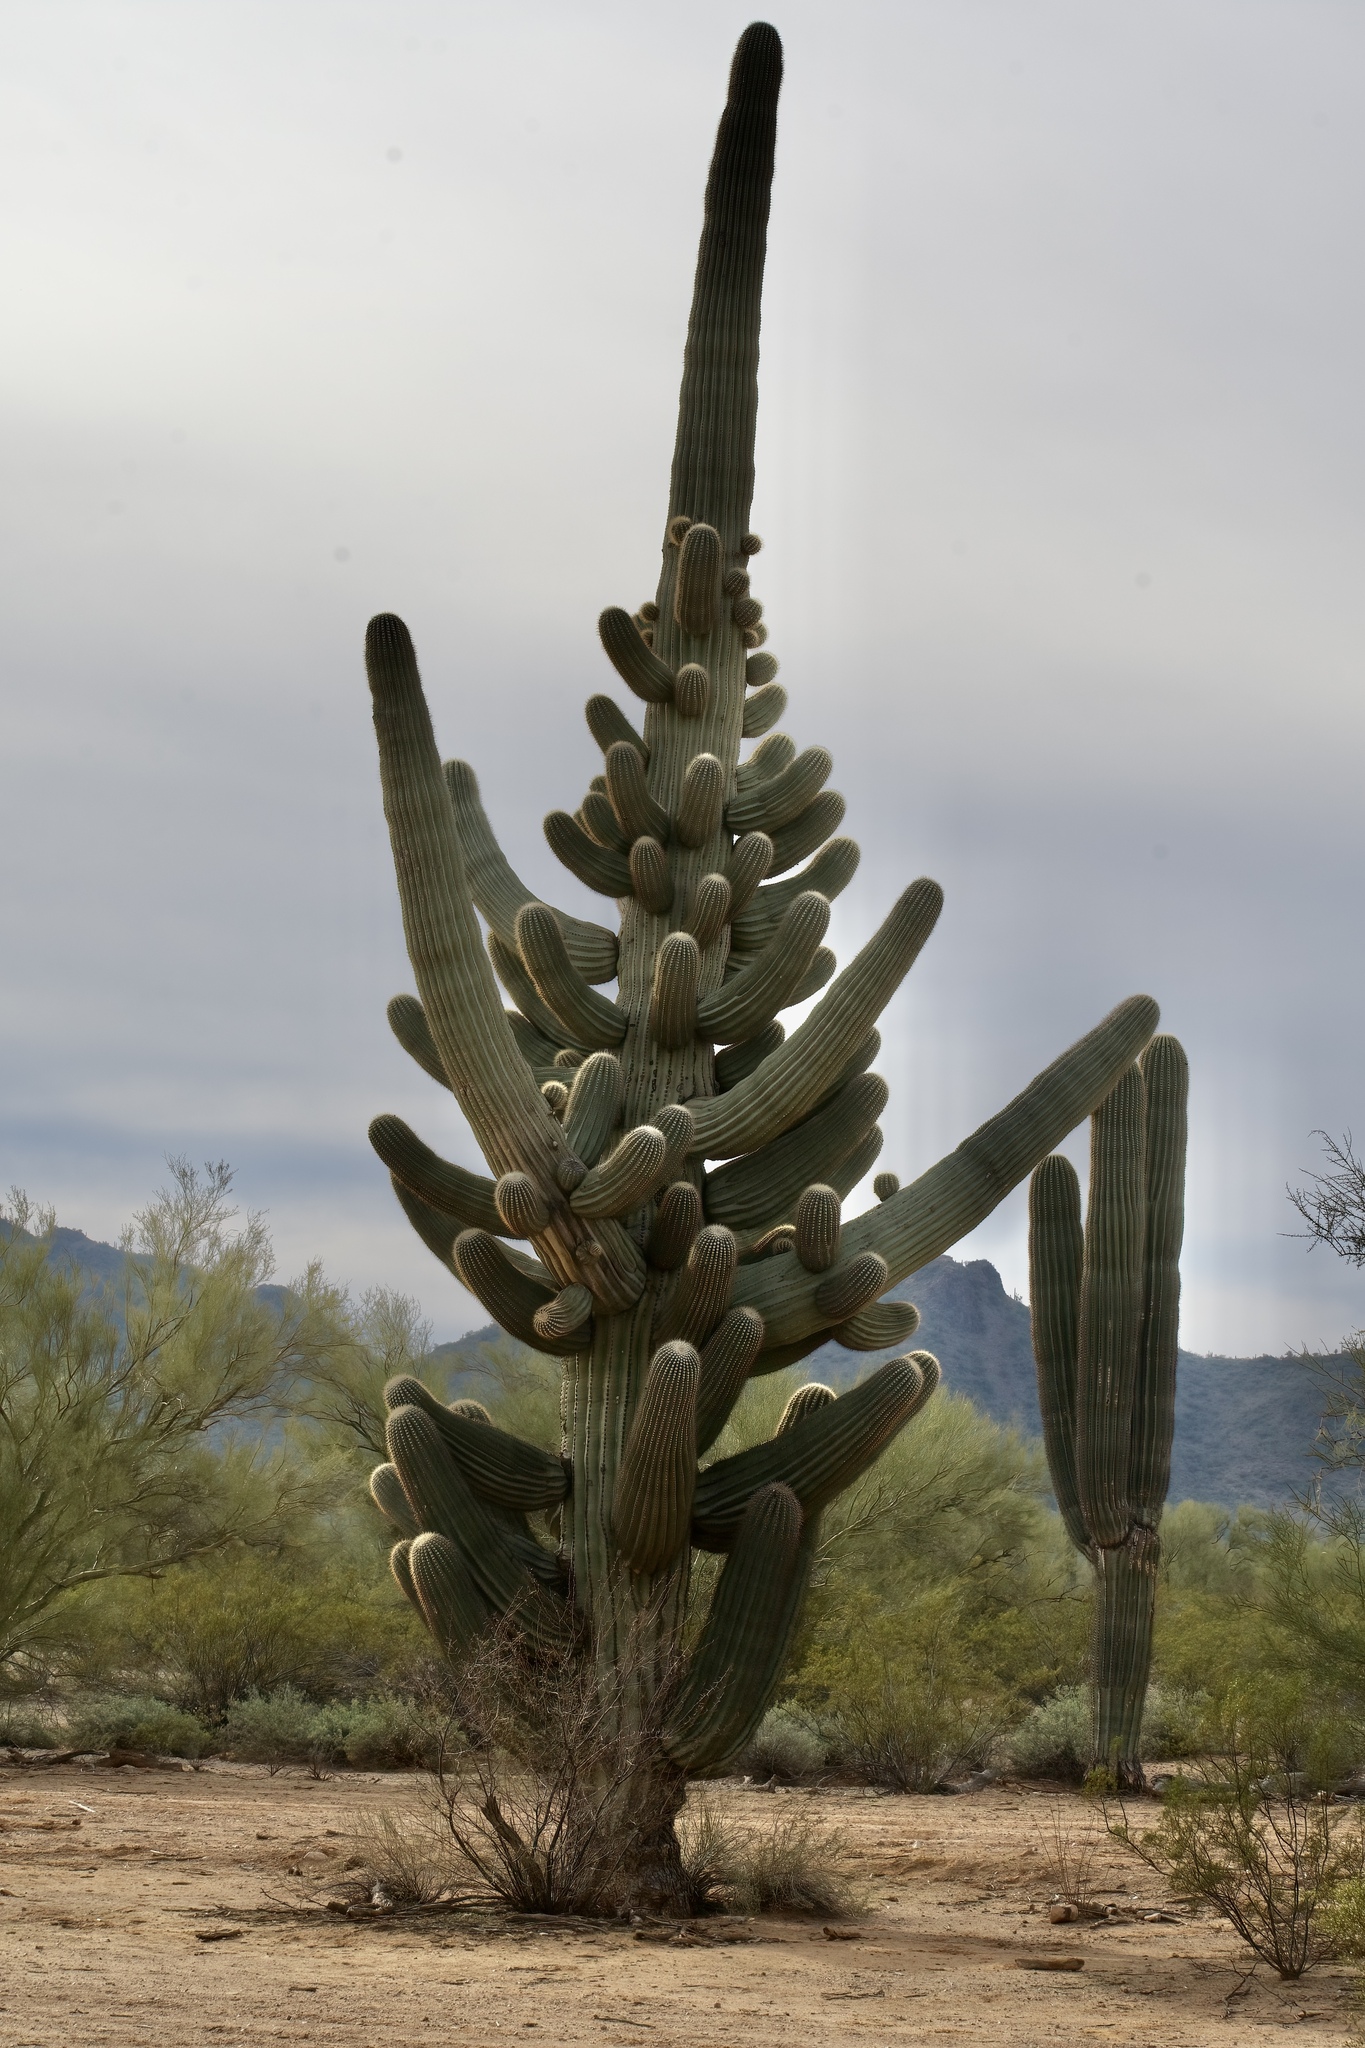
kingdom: Plantae
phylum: Tracheophyta
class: Magnoliopsida
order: Caryophyllales
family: Cactaceae
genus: Carnegiea
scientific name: Carnegiea gigantea
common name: Saguaro
